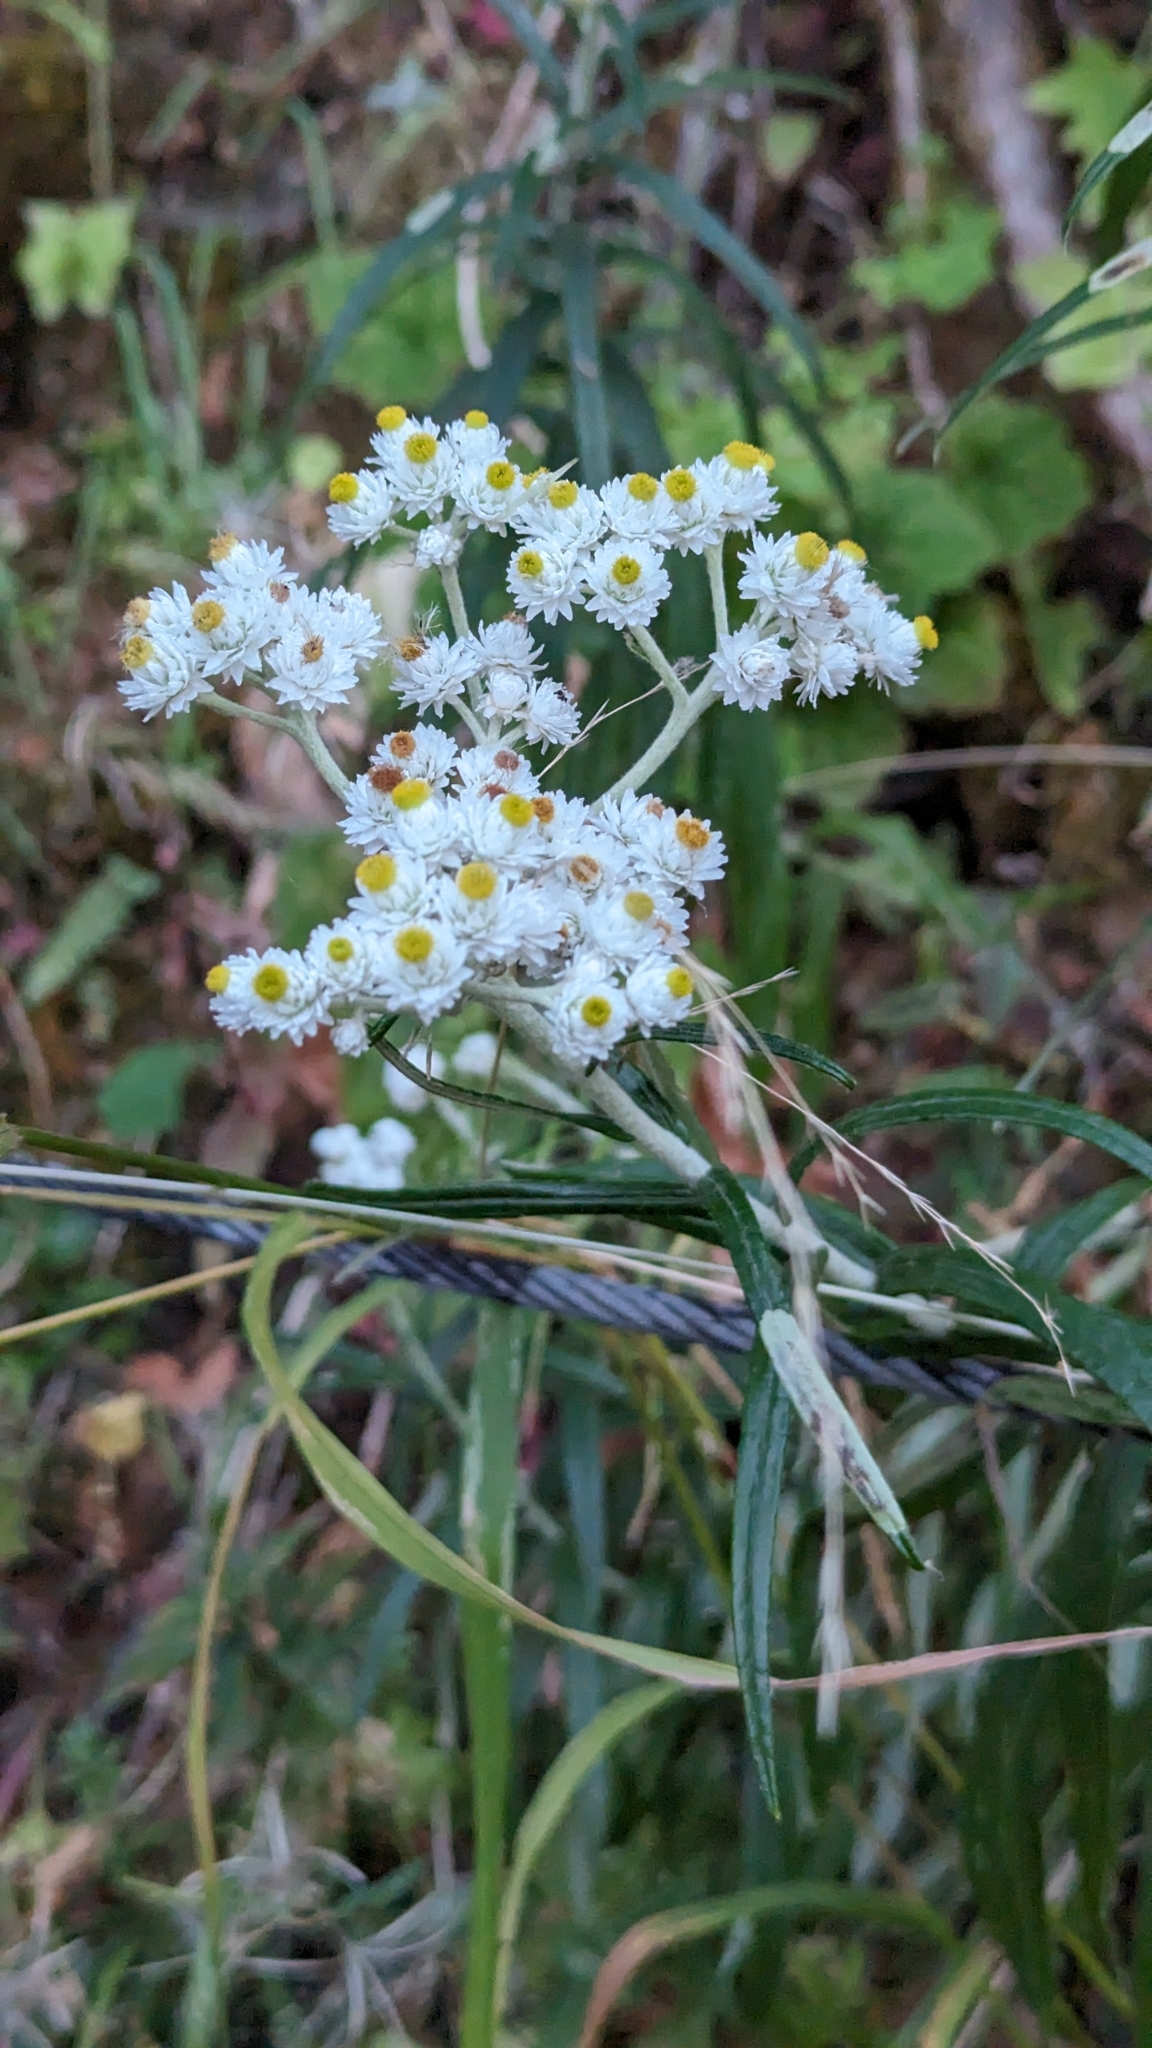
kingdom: Plantae
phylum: Tracheophyta
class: Magnoliopsida
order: Asterales
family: Asteraceae
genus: Anaphalis
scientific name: Anaphalis margaritacea
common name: Pearly everlasting
